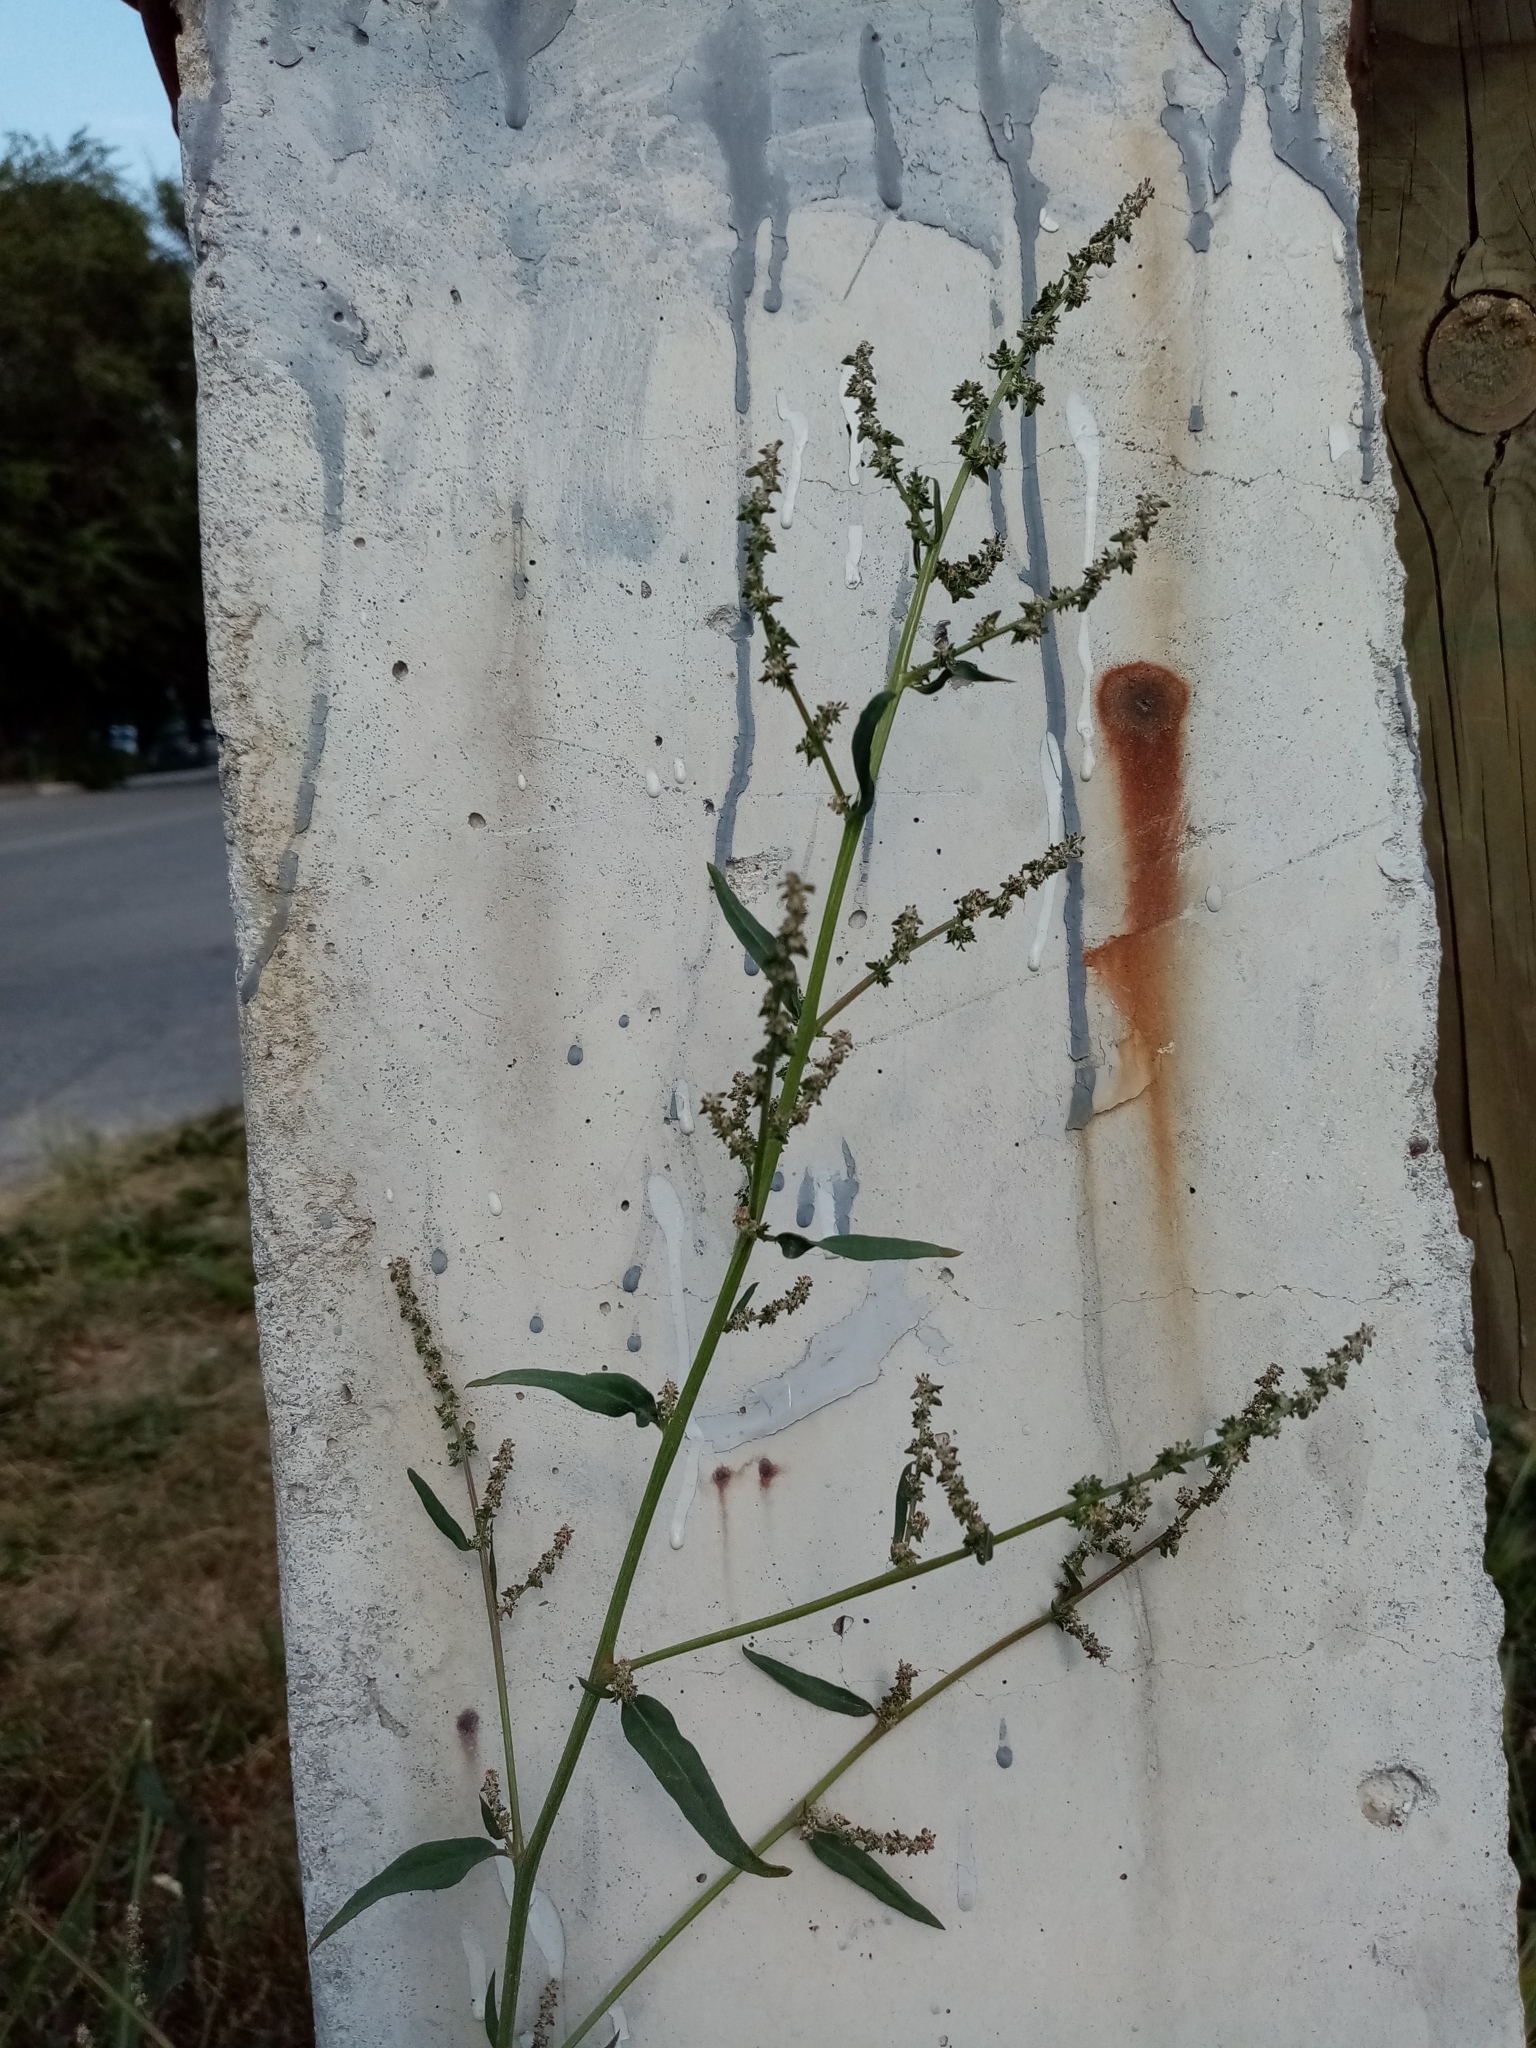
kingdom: Plantae
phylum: Tracheophyta
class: Magnoliopsida
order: Caryophyllales
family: Amaranthaceae
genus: Atriplex
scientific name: Atriplex patula
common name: Common orache
